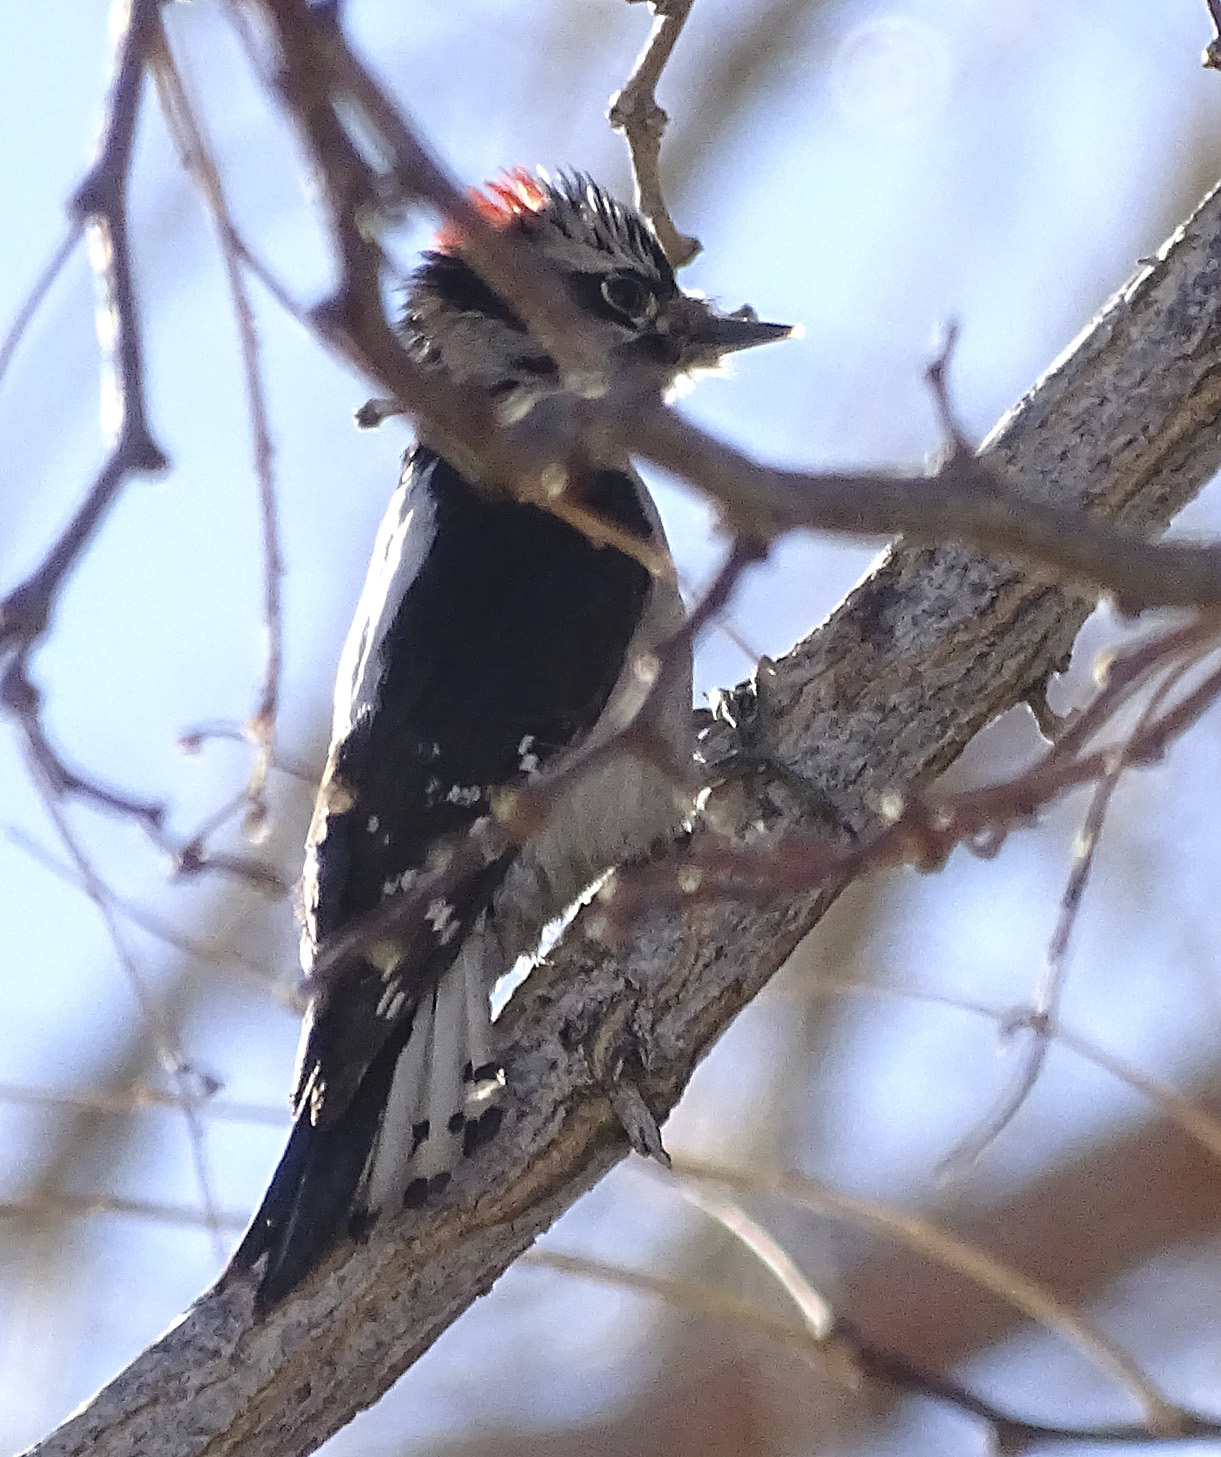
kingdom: Animalia
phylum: Chordata
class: Aves
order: Piciformes
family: Picidae
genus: Dryobates
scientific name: Dryobates pubescens
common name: Downy woodpecker
